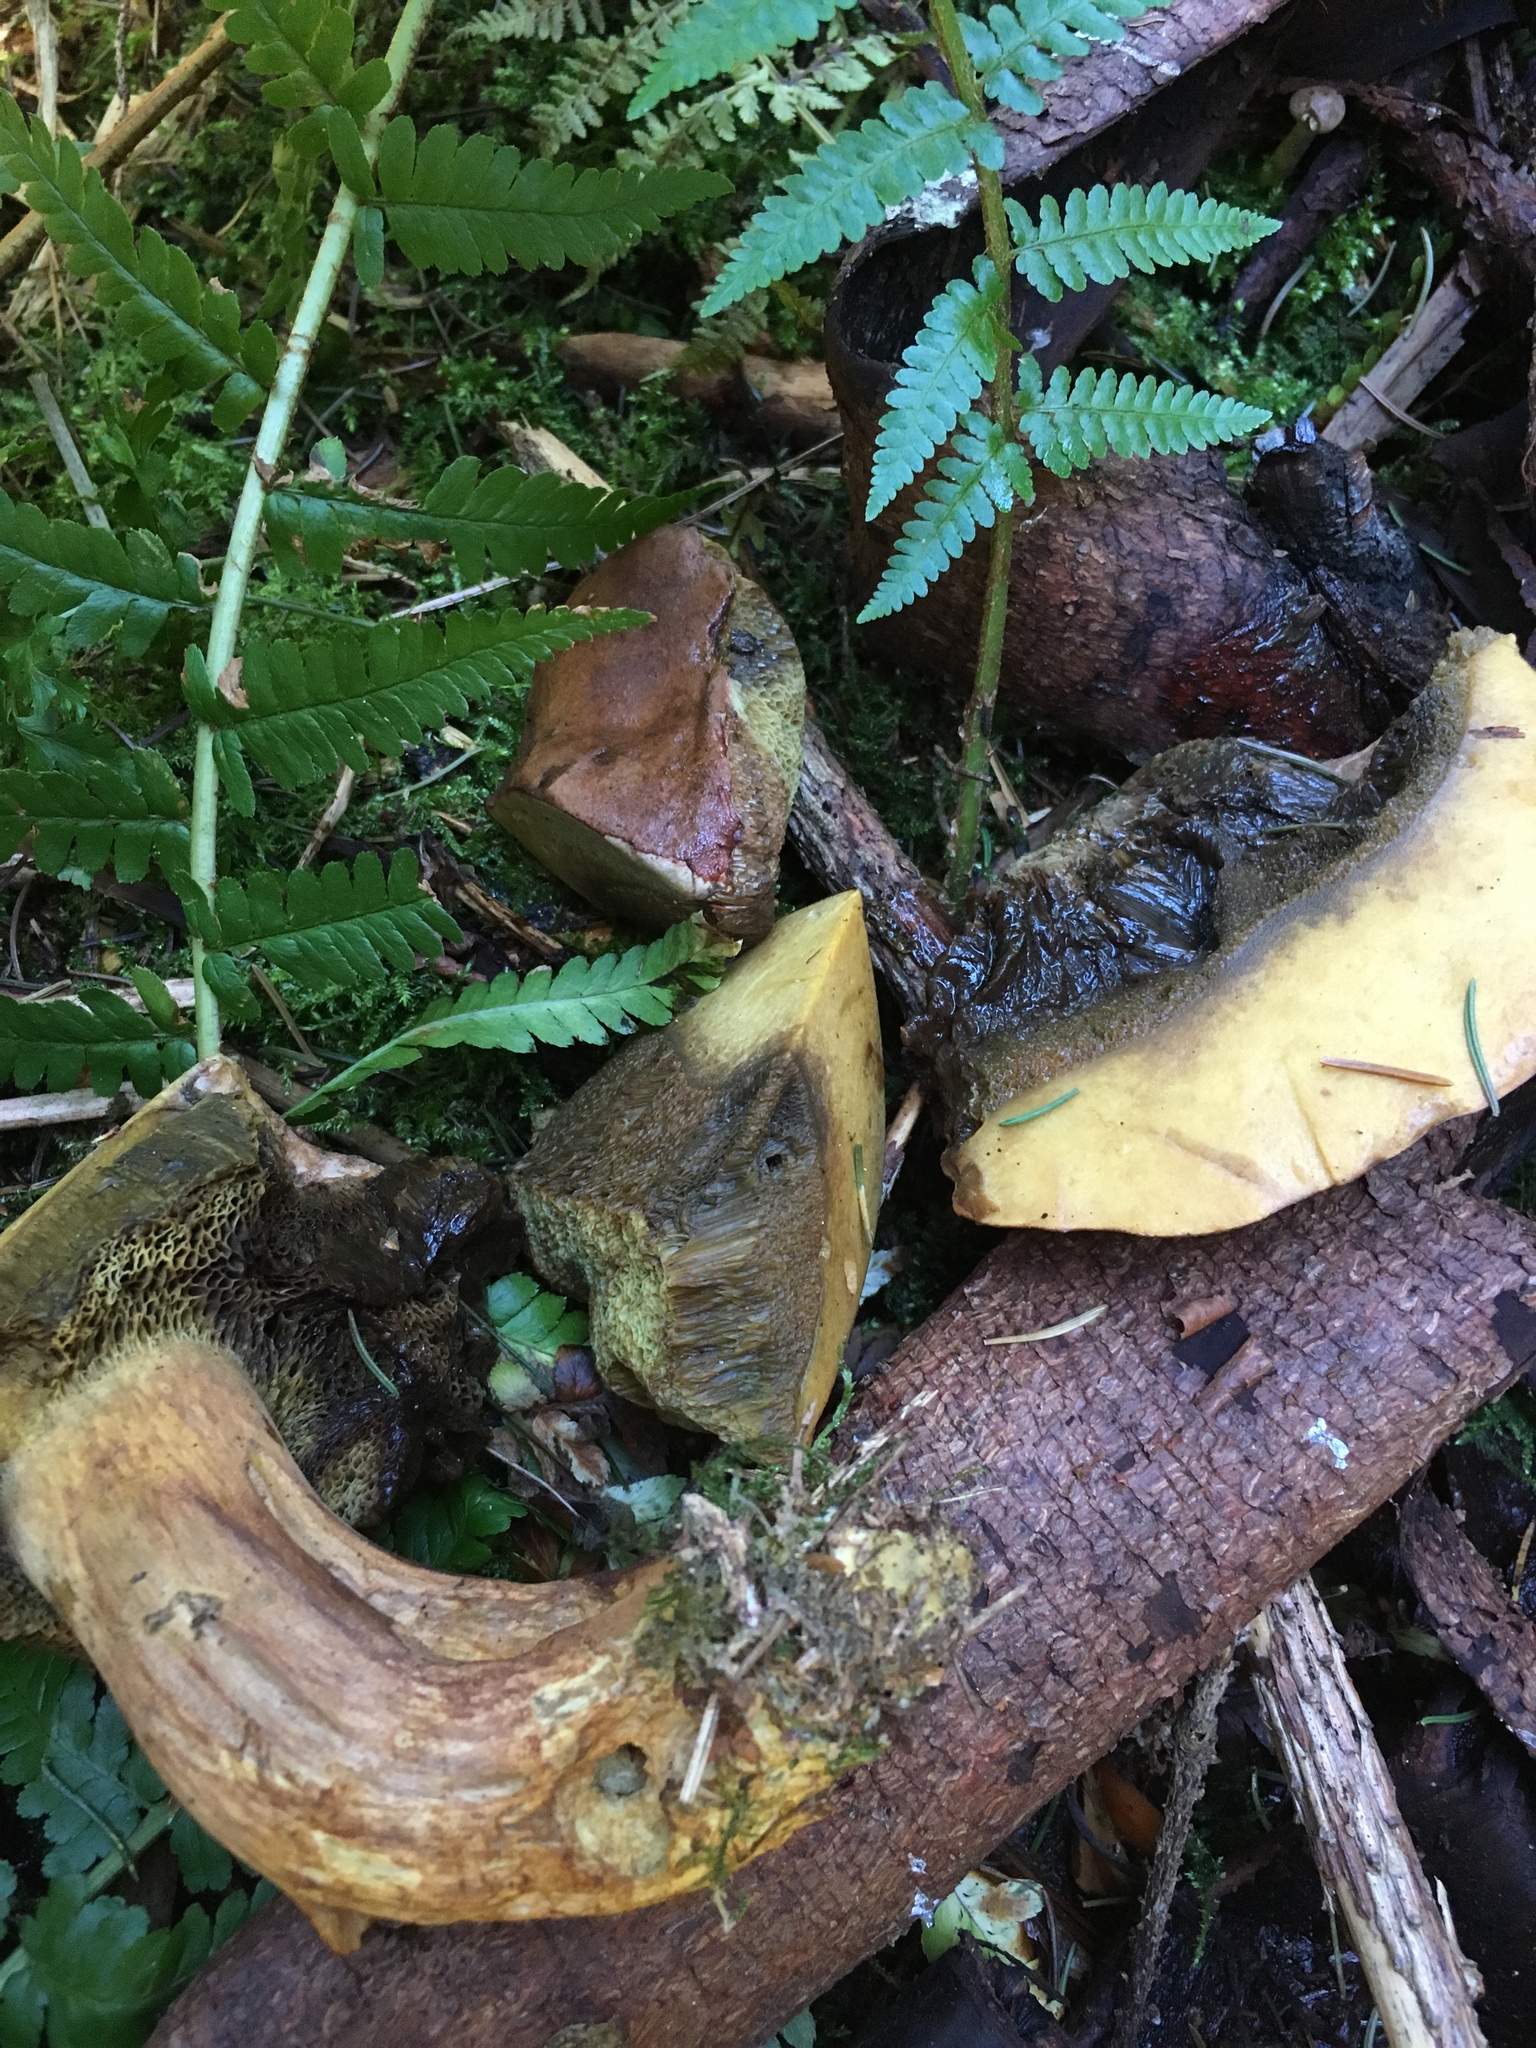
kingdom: Fungi
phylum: Basidiomycota
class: Agaricomycetes
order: Boletales
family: Boletaceae
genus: Imleria
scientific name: Imleria badia
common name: Bay bolete
